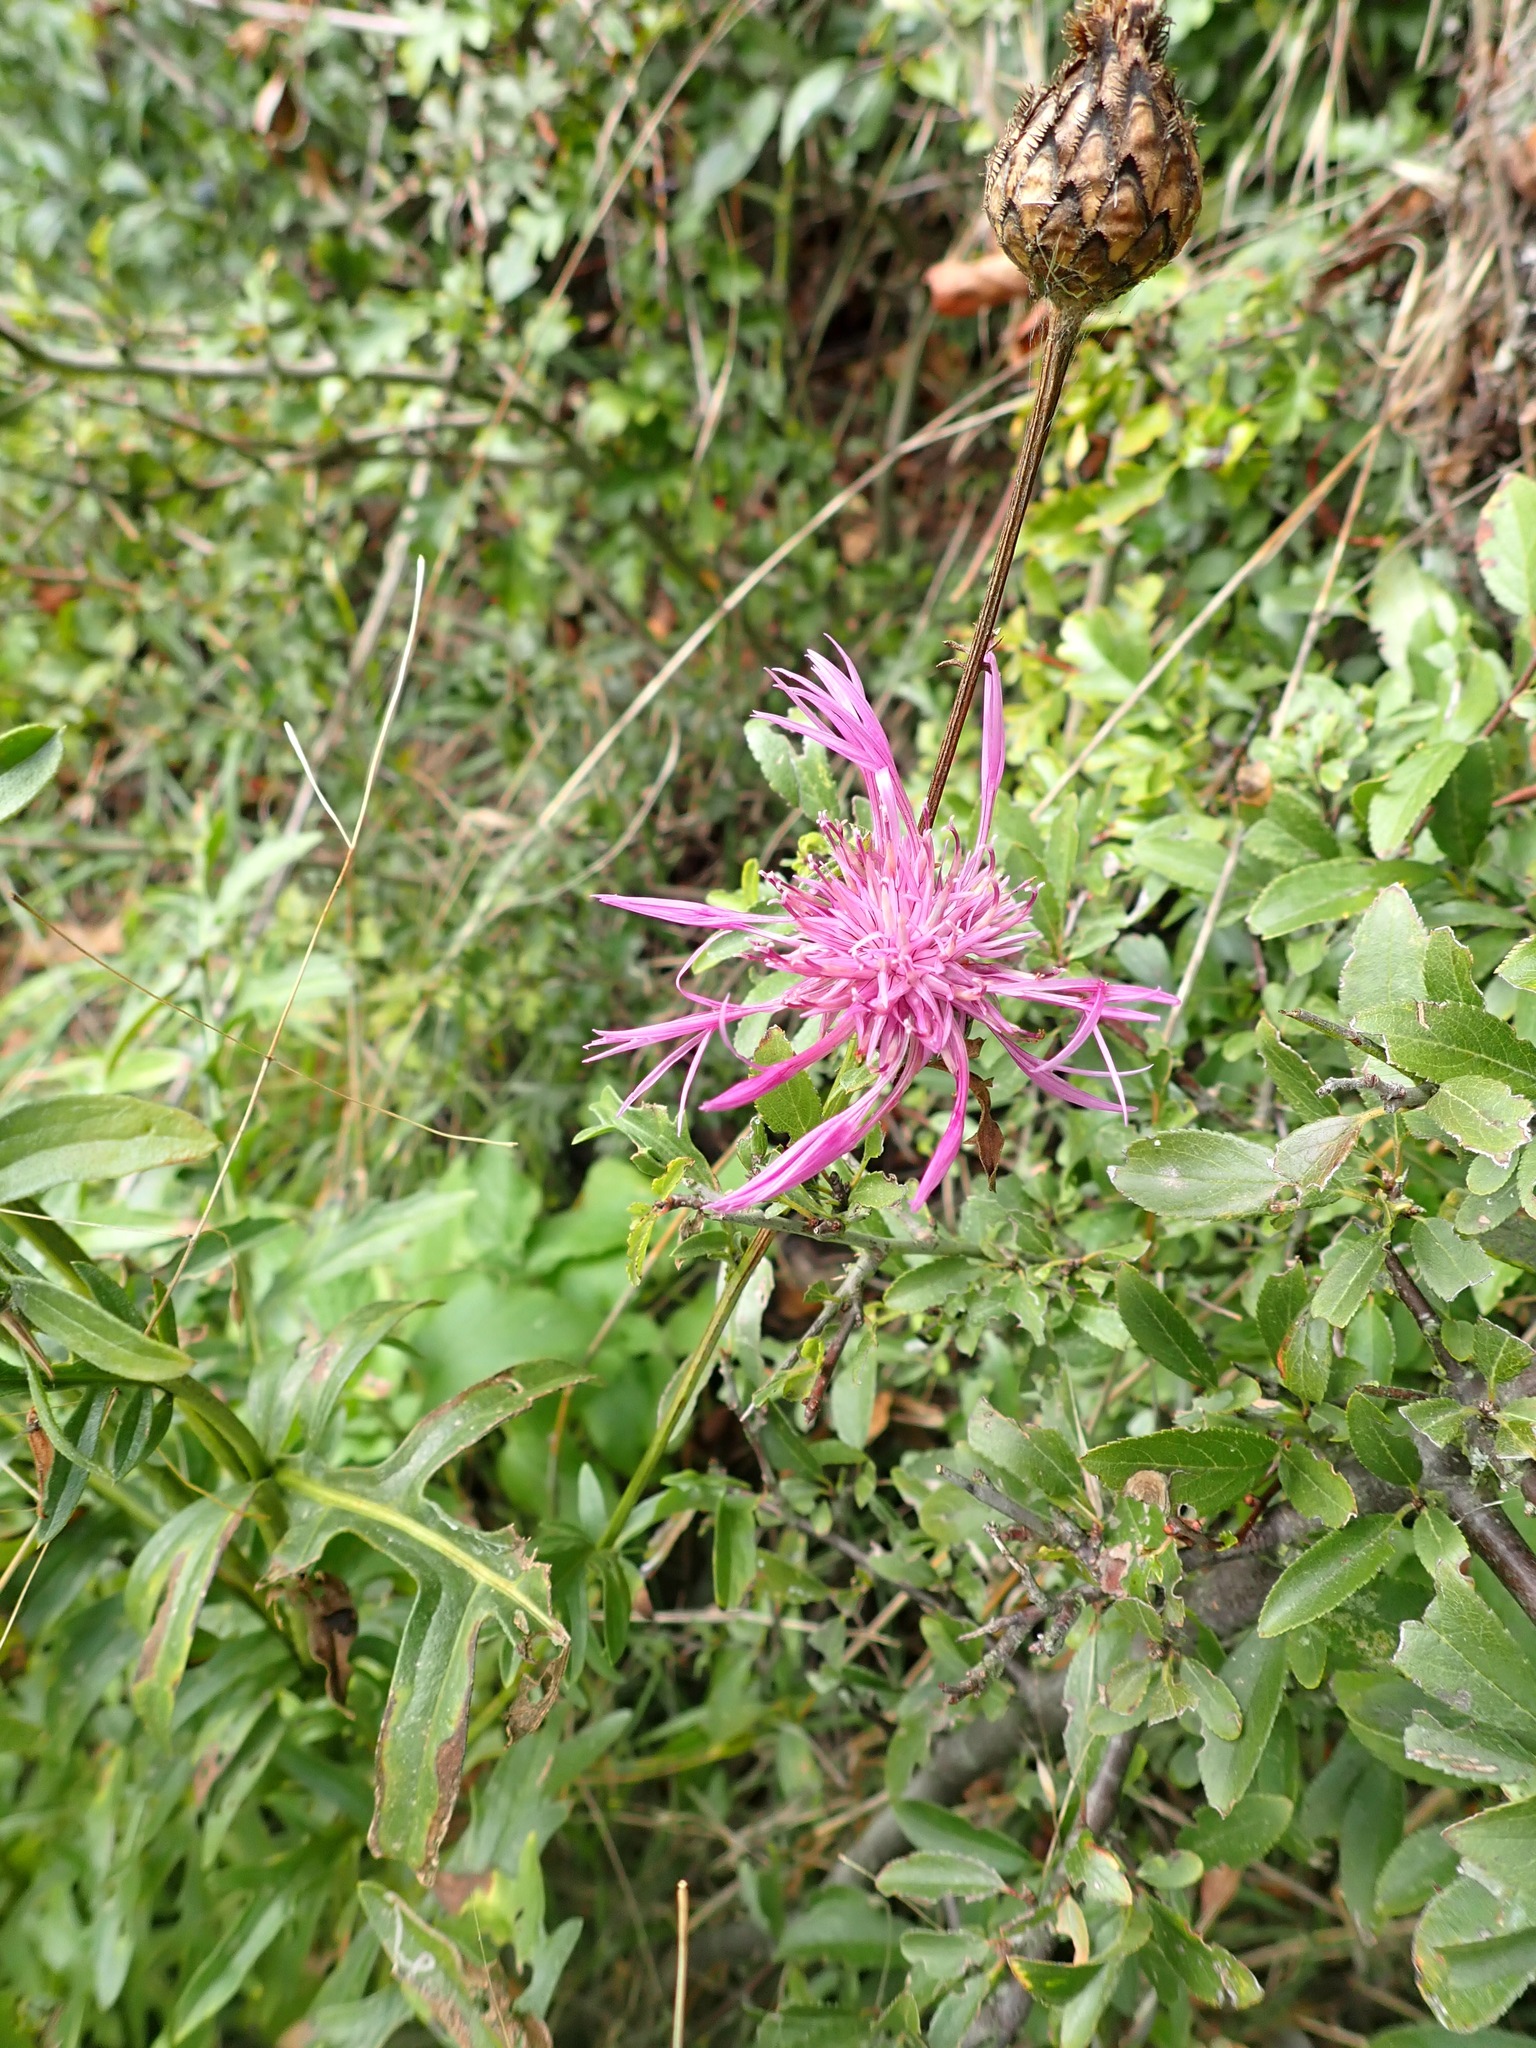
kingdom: Plantae
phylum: Tracheophyta
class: Magnoliopsida
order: Asterales
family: Asteraceae
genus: Centaurea
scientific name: Centaurea scabiosa
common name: Greater knapweed
